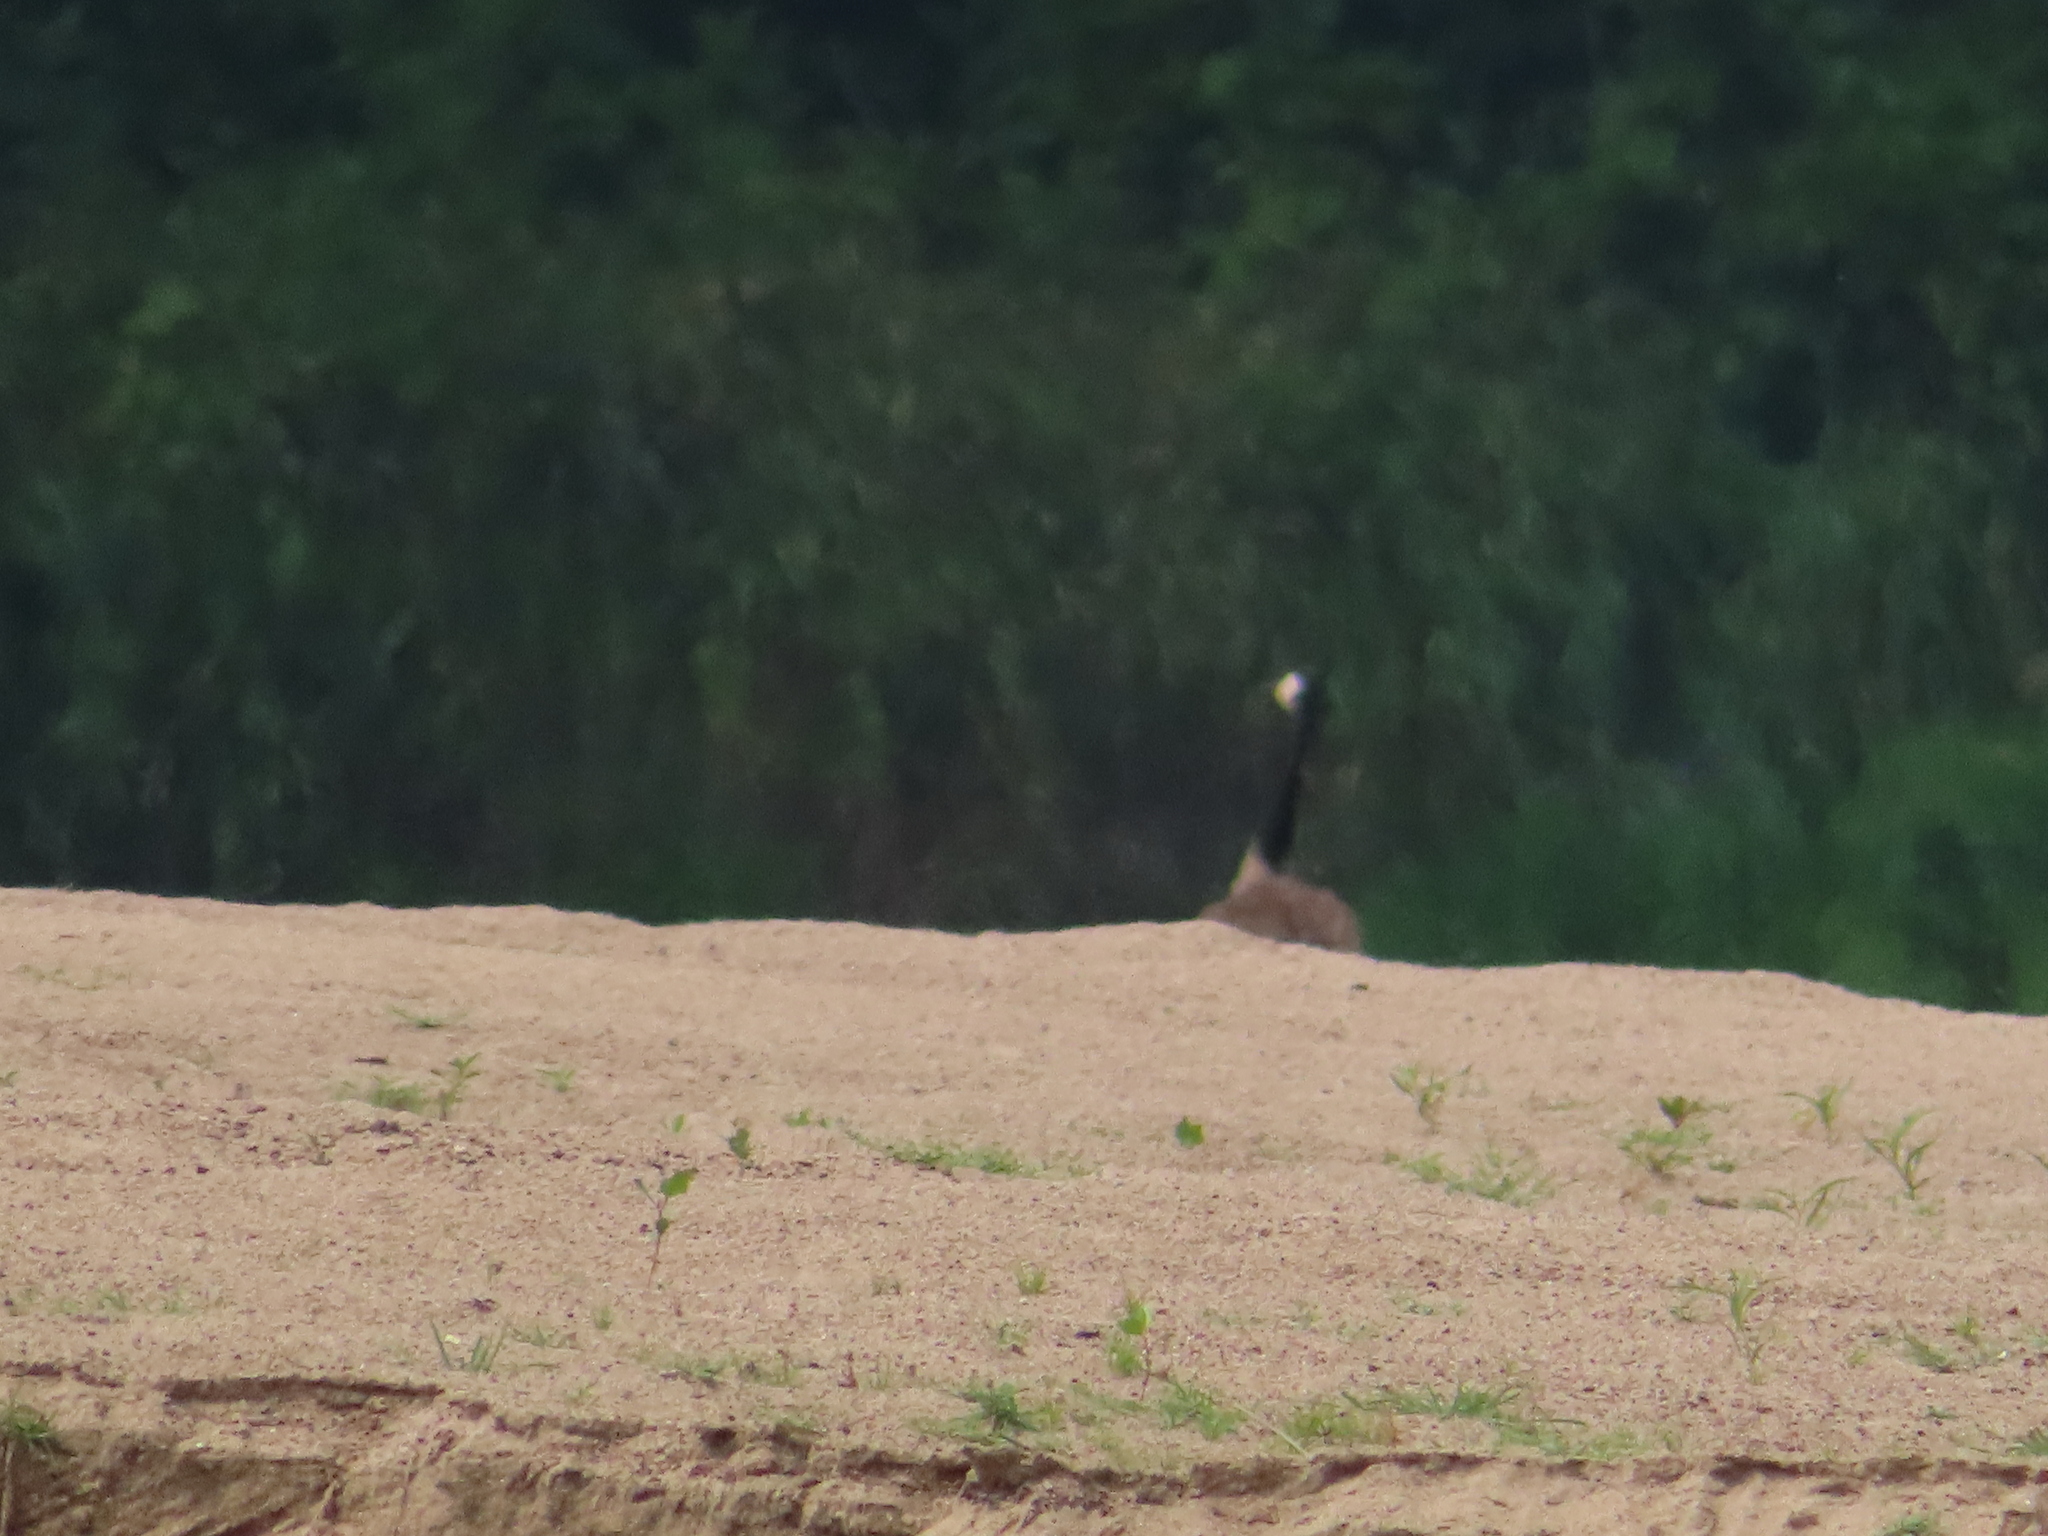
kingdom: Animalia
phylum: Chordata
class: Aves
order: Anseriformes
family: Anatidae
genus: Branta
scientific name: Branta canadensis
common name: Canada goose
